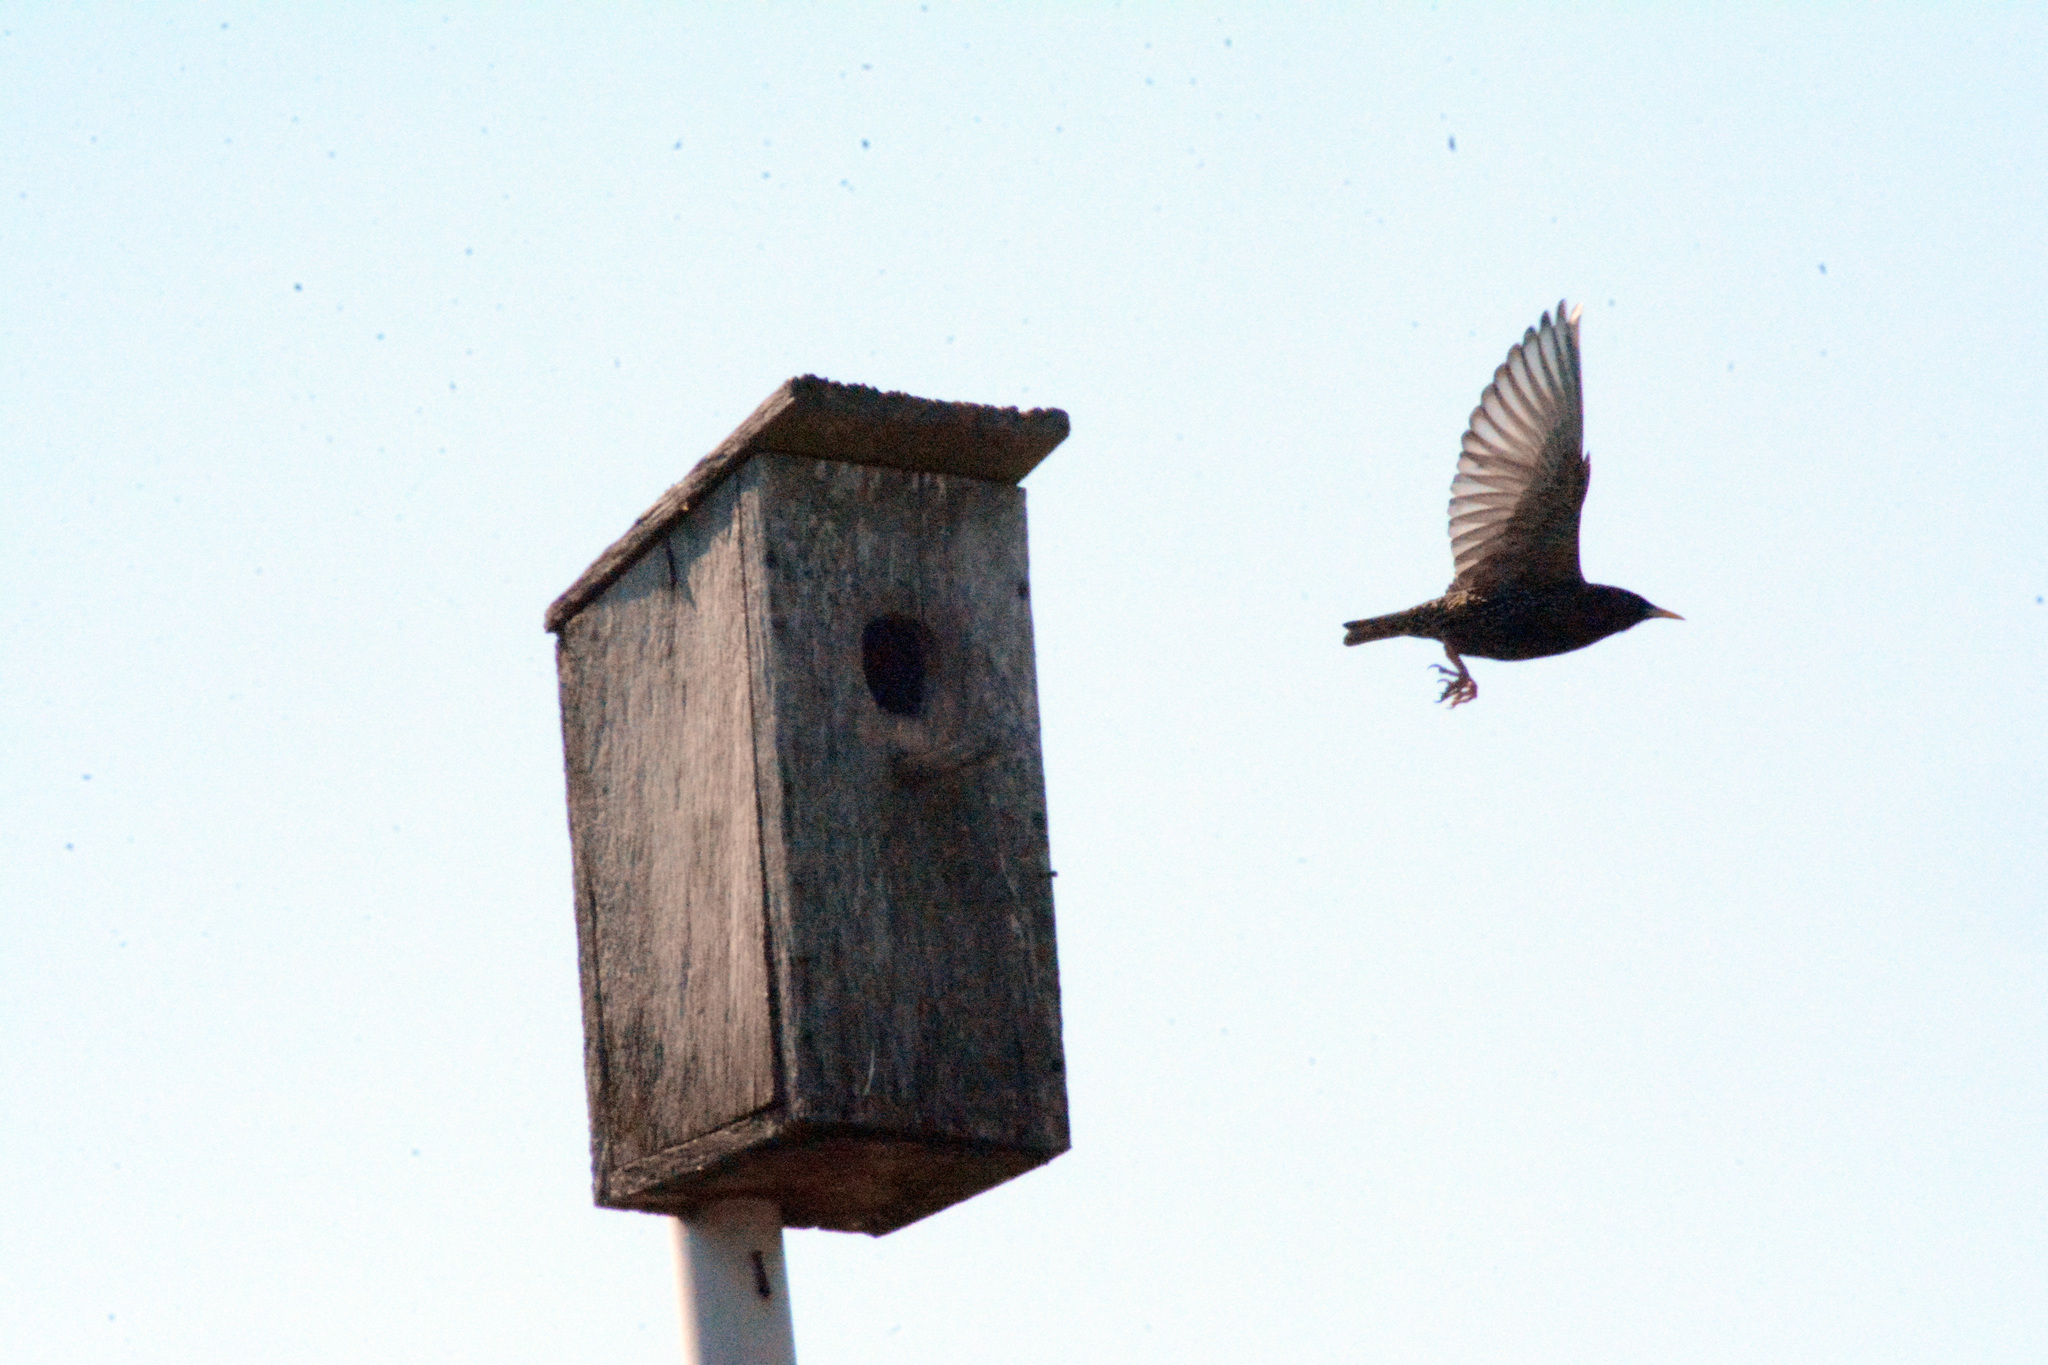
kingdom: Animalia
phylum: Chordata
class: Aves
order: Passeriformes
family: Sturnidae
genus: Sturnus
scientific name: Sturnus vulgaris
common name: Common starling
